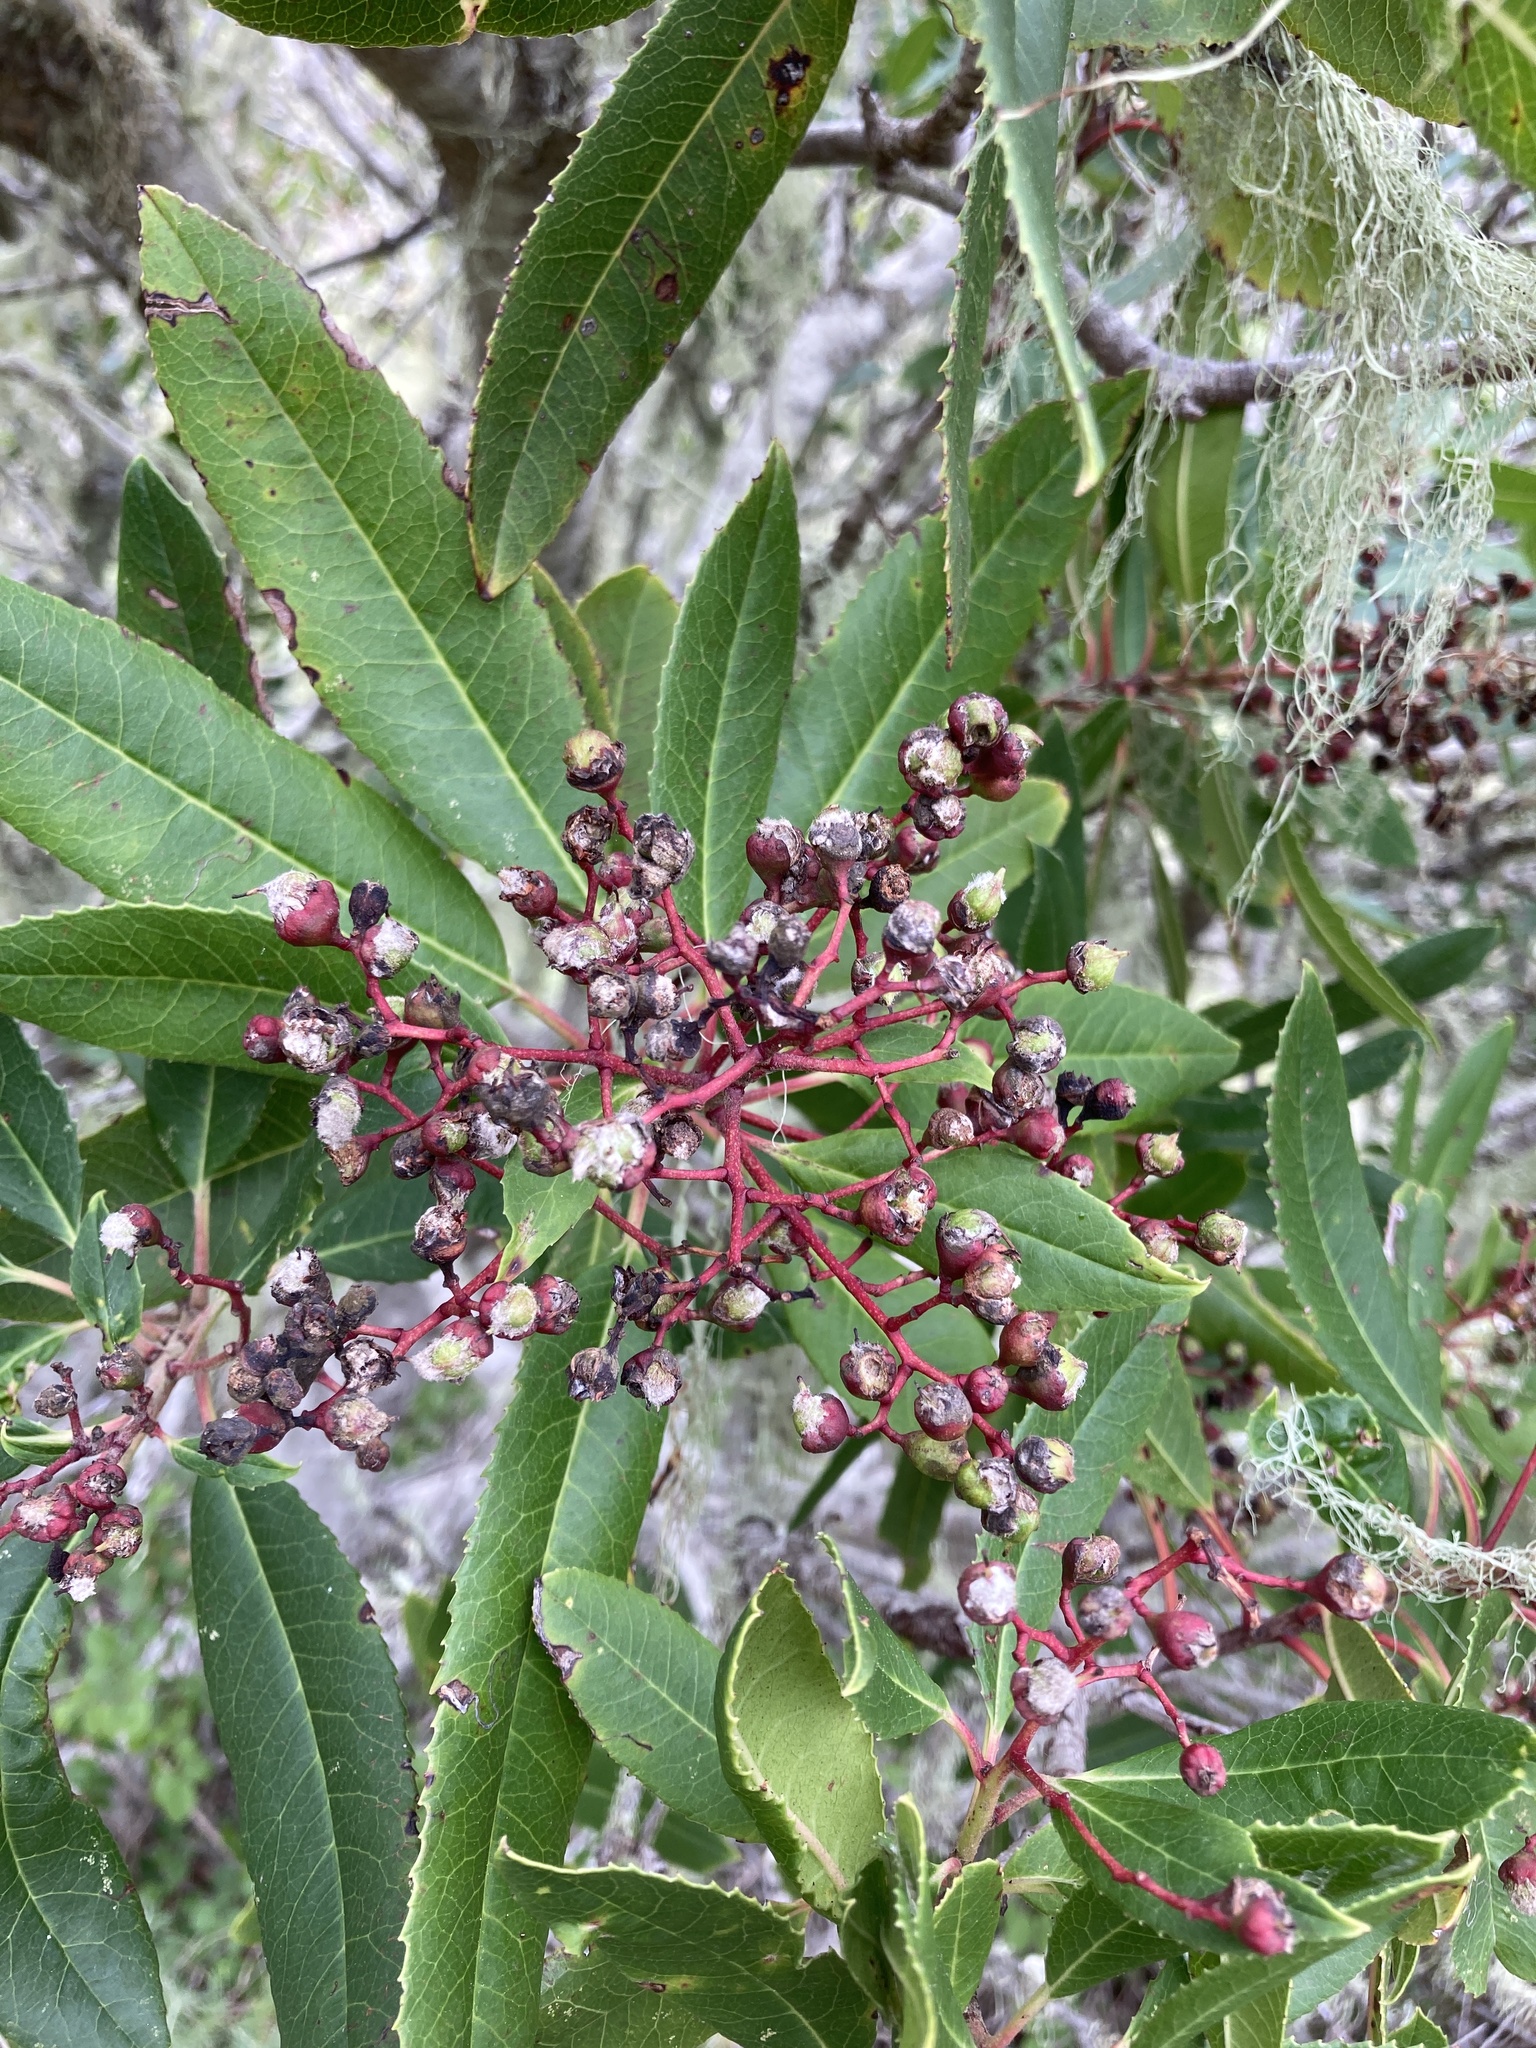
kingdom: Plantae
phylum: Tracheophyta
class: Magnoliopsida
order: Rosales
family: Rosaceae
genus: Heteromeles
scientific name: Heteromeles arbutifolia
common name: California-holly
